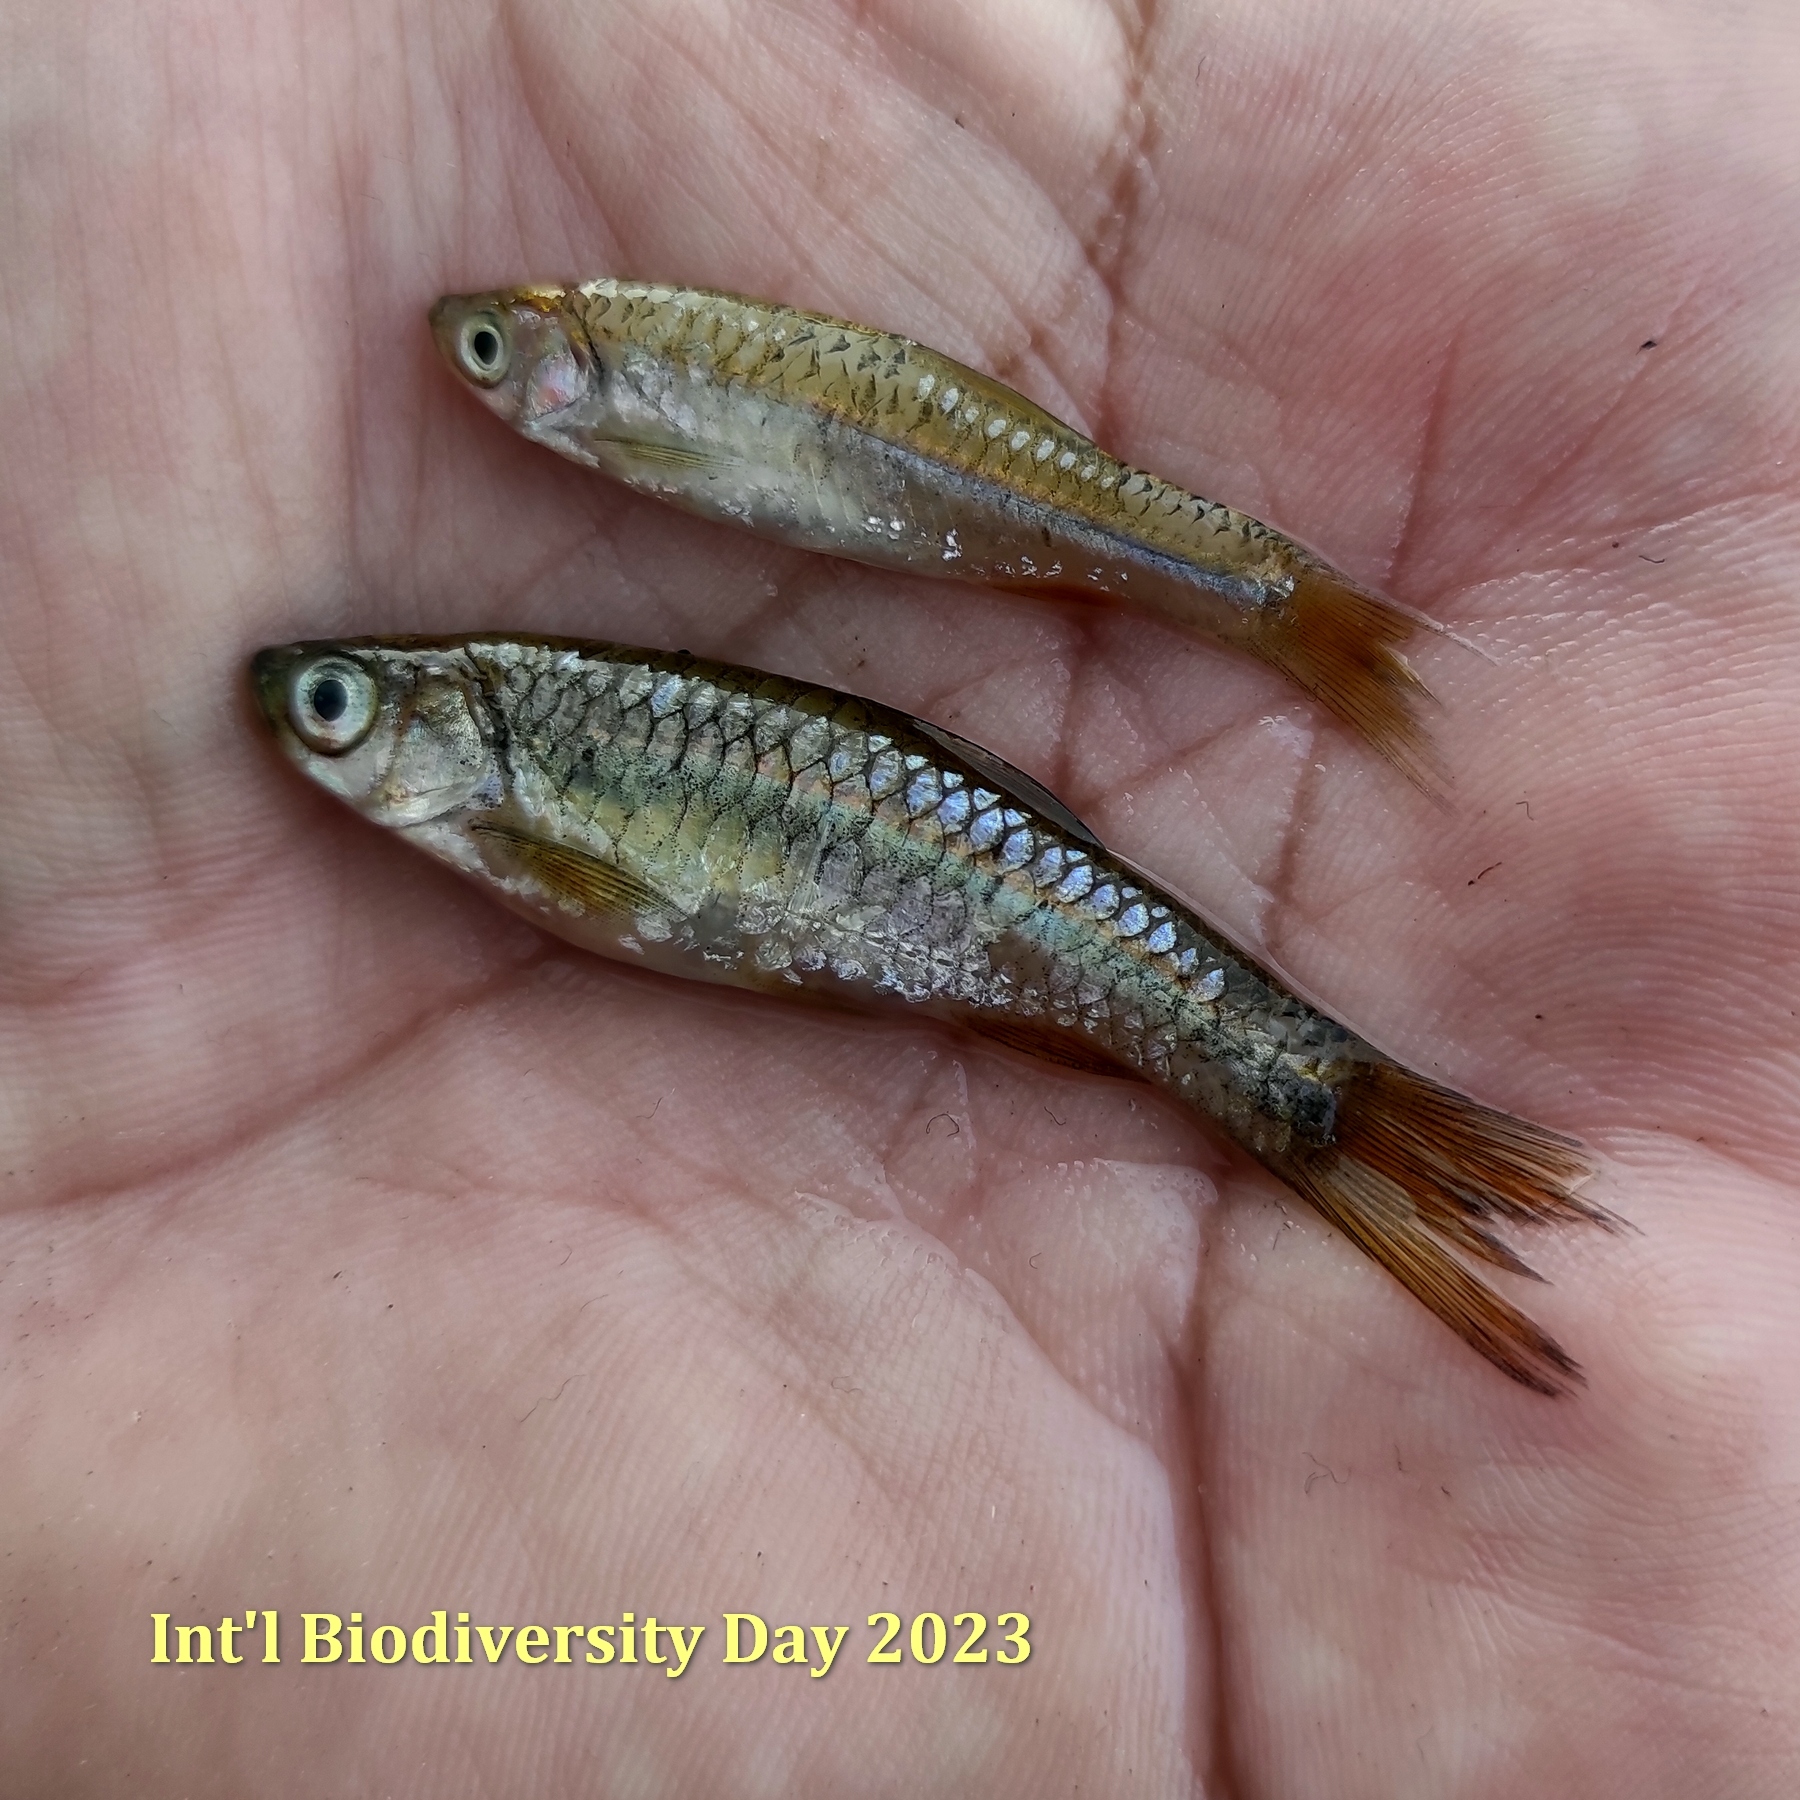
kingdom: Animalia
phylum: Chordata
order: Cypriniformes
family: Cyprinidae
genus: Rasbora
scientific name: Rasbora argyrotaenia
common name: Silver rasbora
